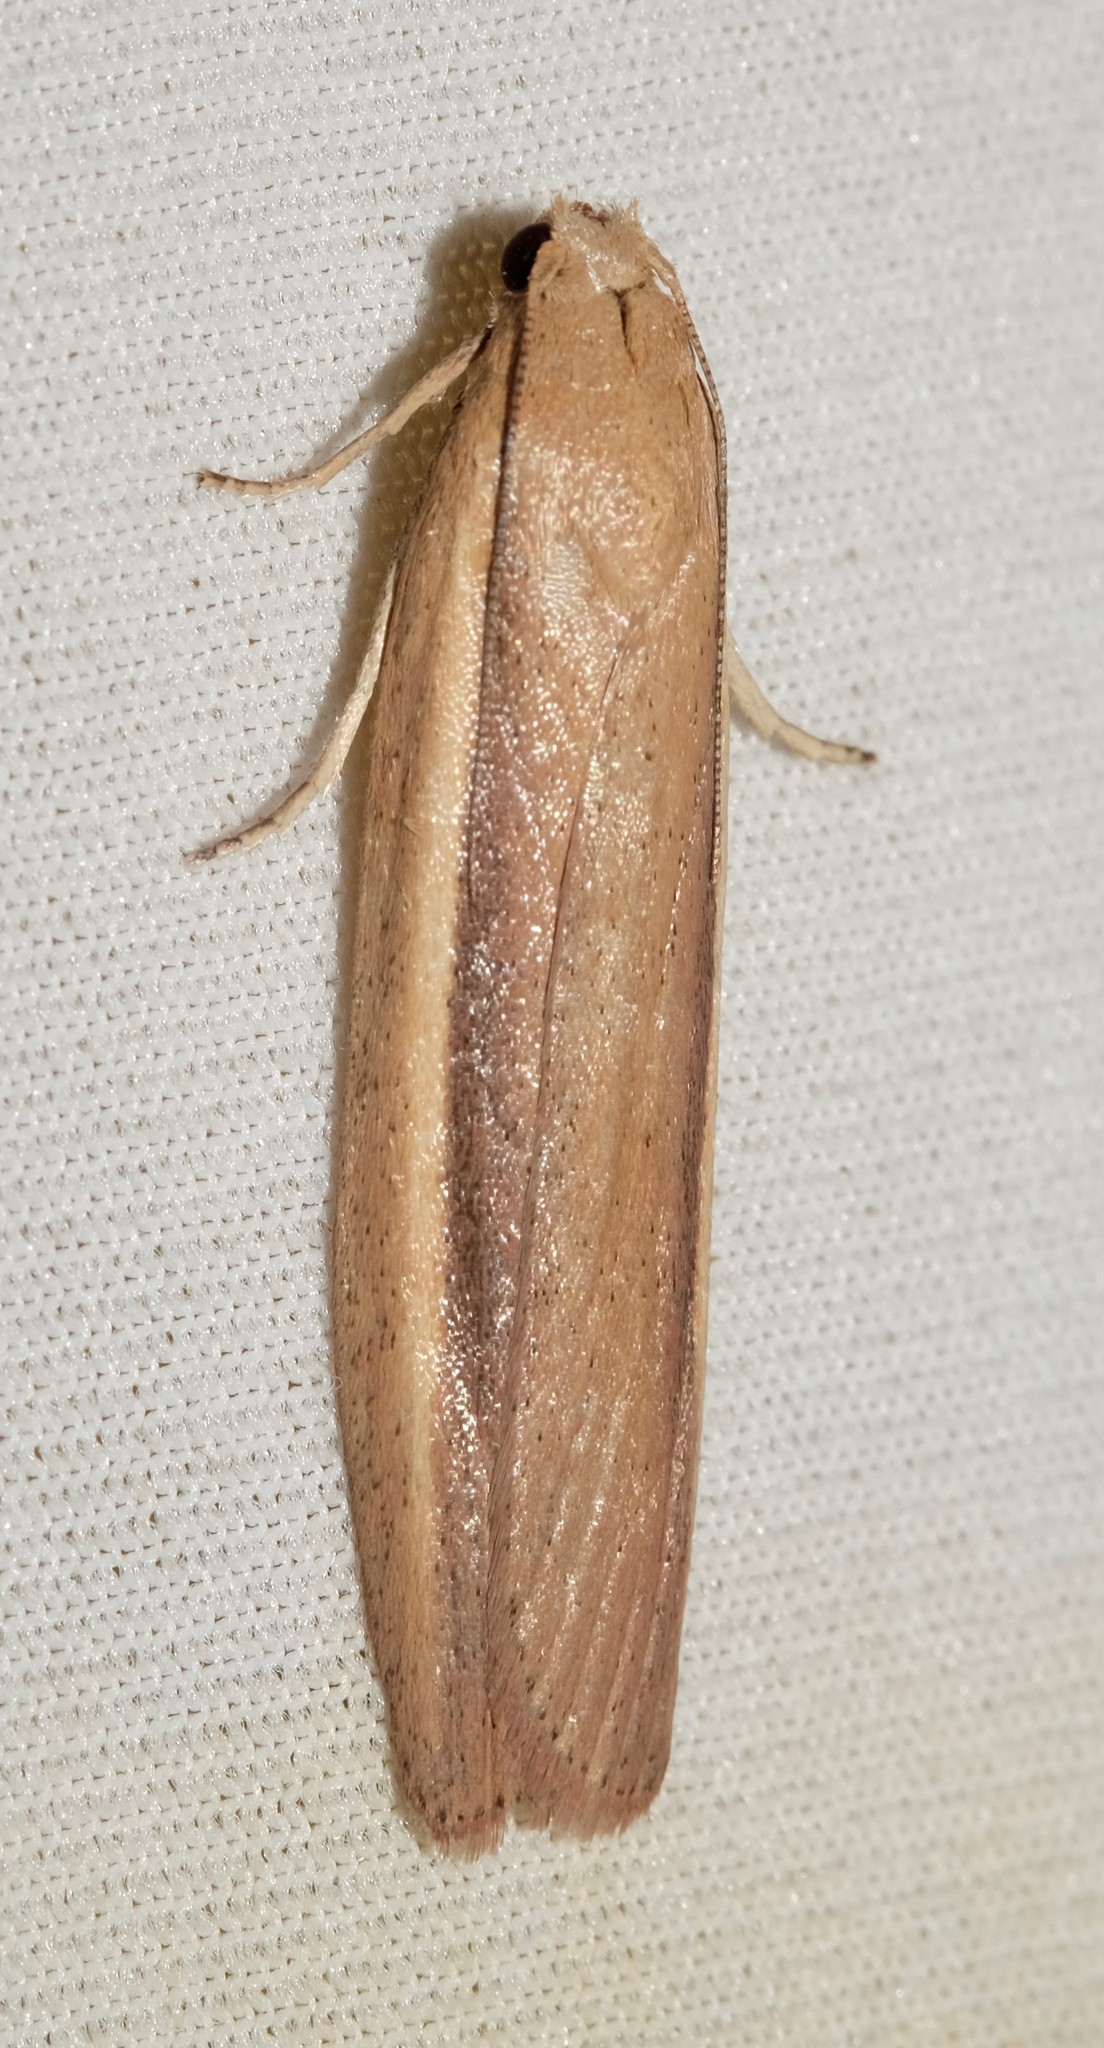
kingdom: Animalia
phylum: Arthropoda
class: Insecta
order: Lepidoptera
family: Pyralidae
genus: Meyriccia
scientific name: Meyriccia latro
